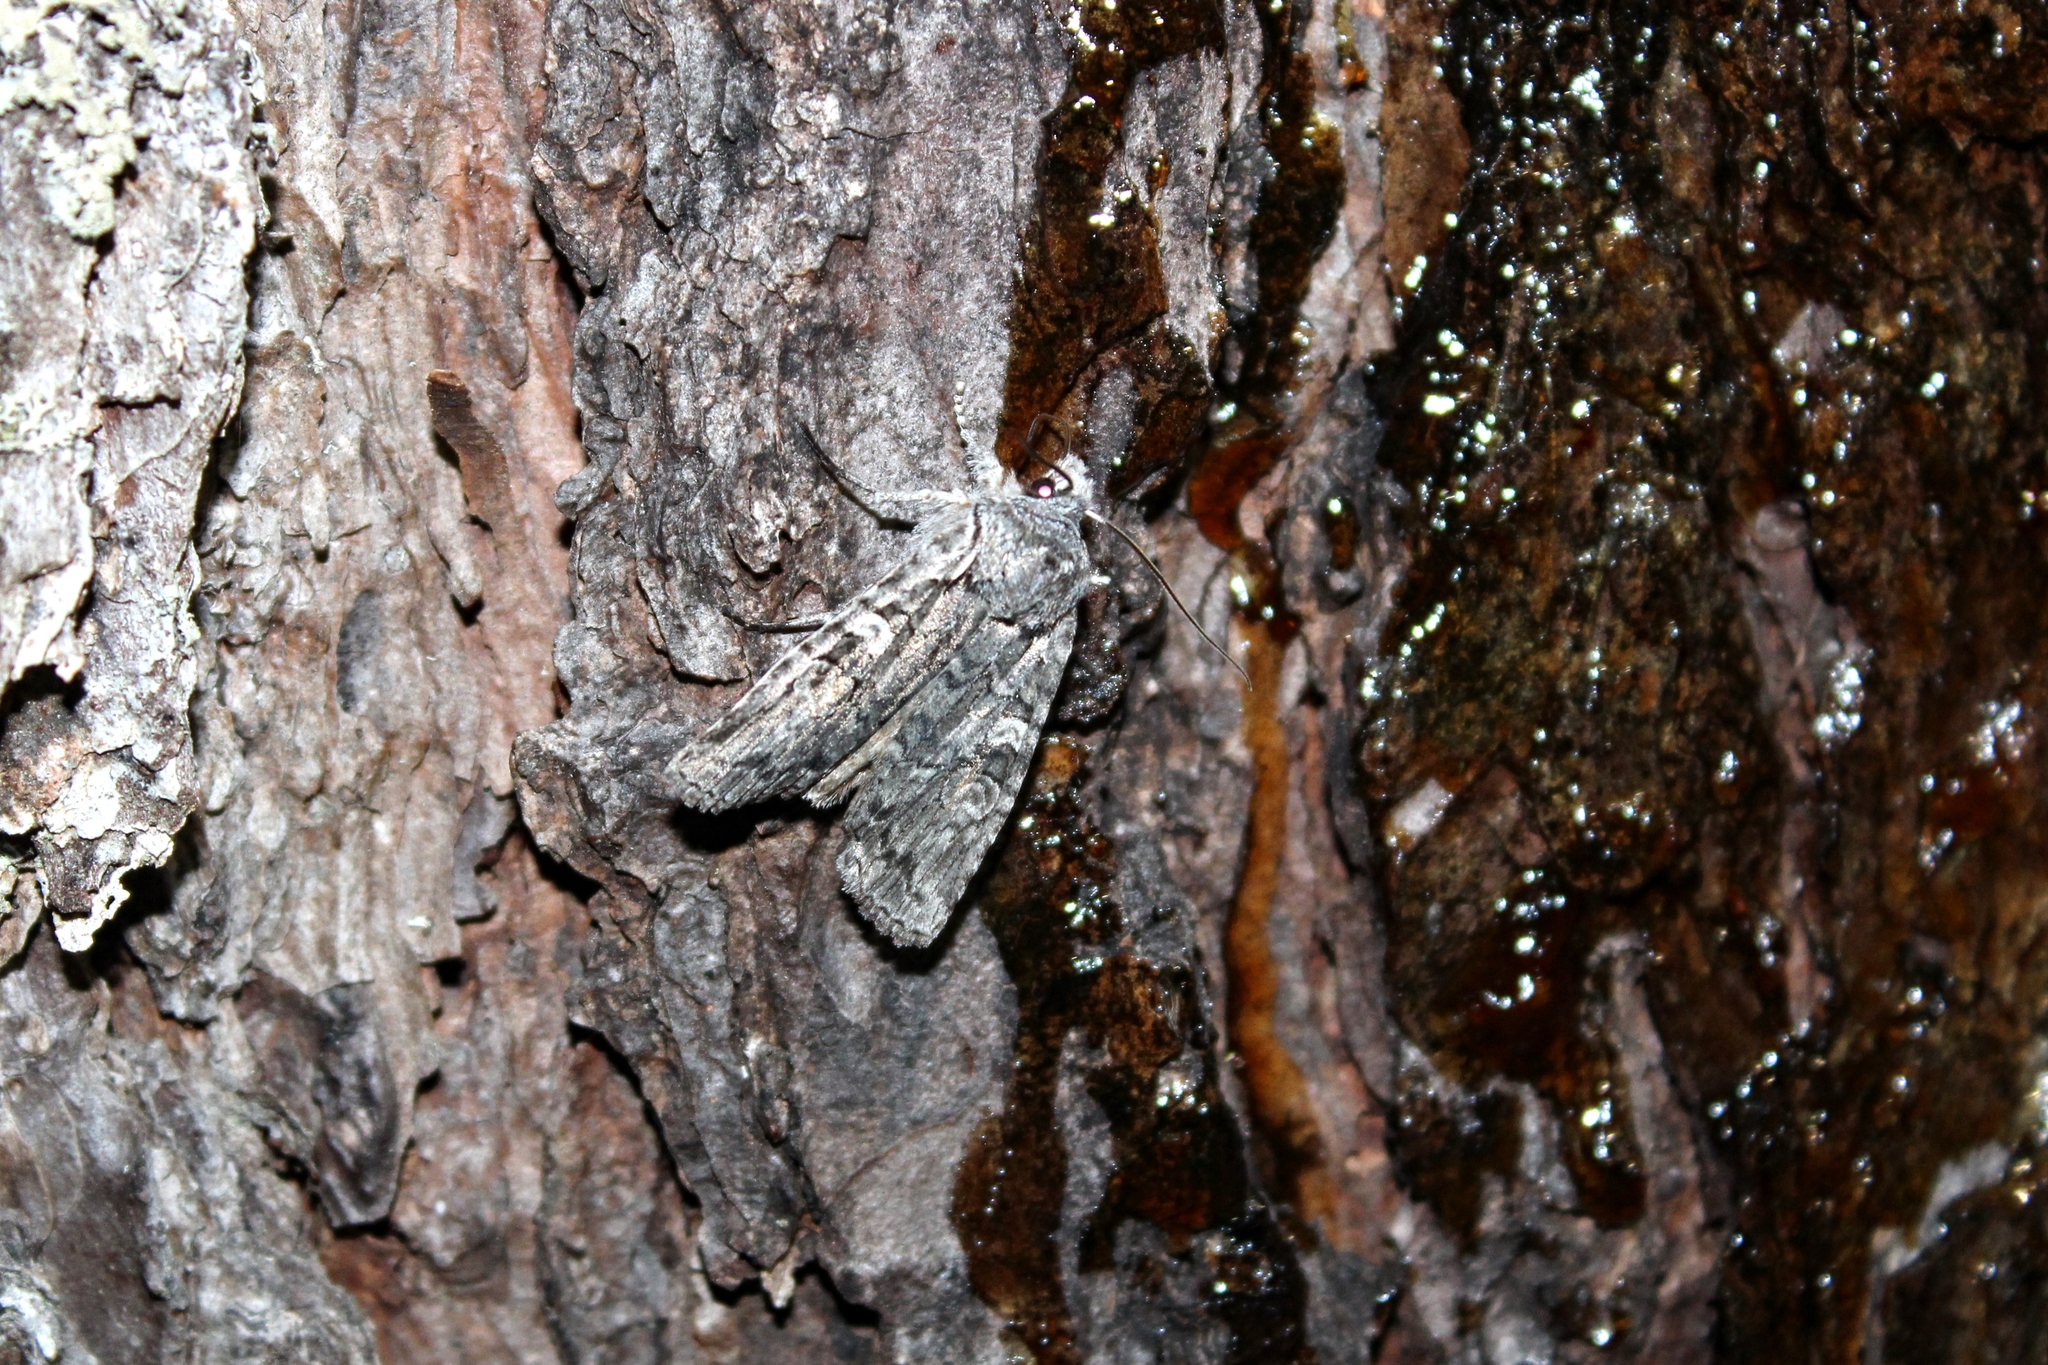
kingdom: Animalia
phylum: Arthropoda
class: Insecta
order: Lepidoptera
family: Noctuidae
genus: Lithophane
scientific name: Lithophane tepida
